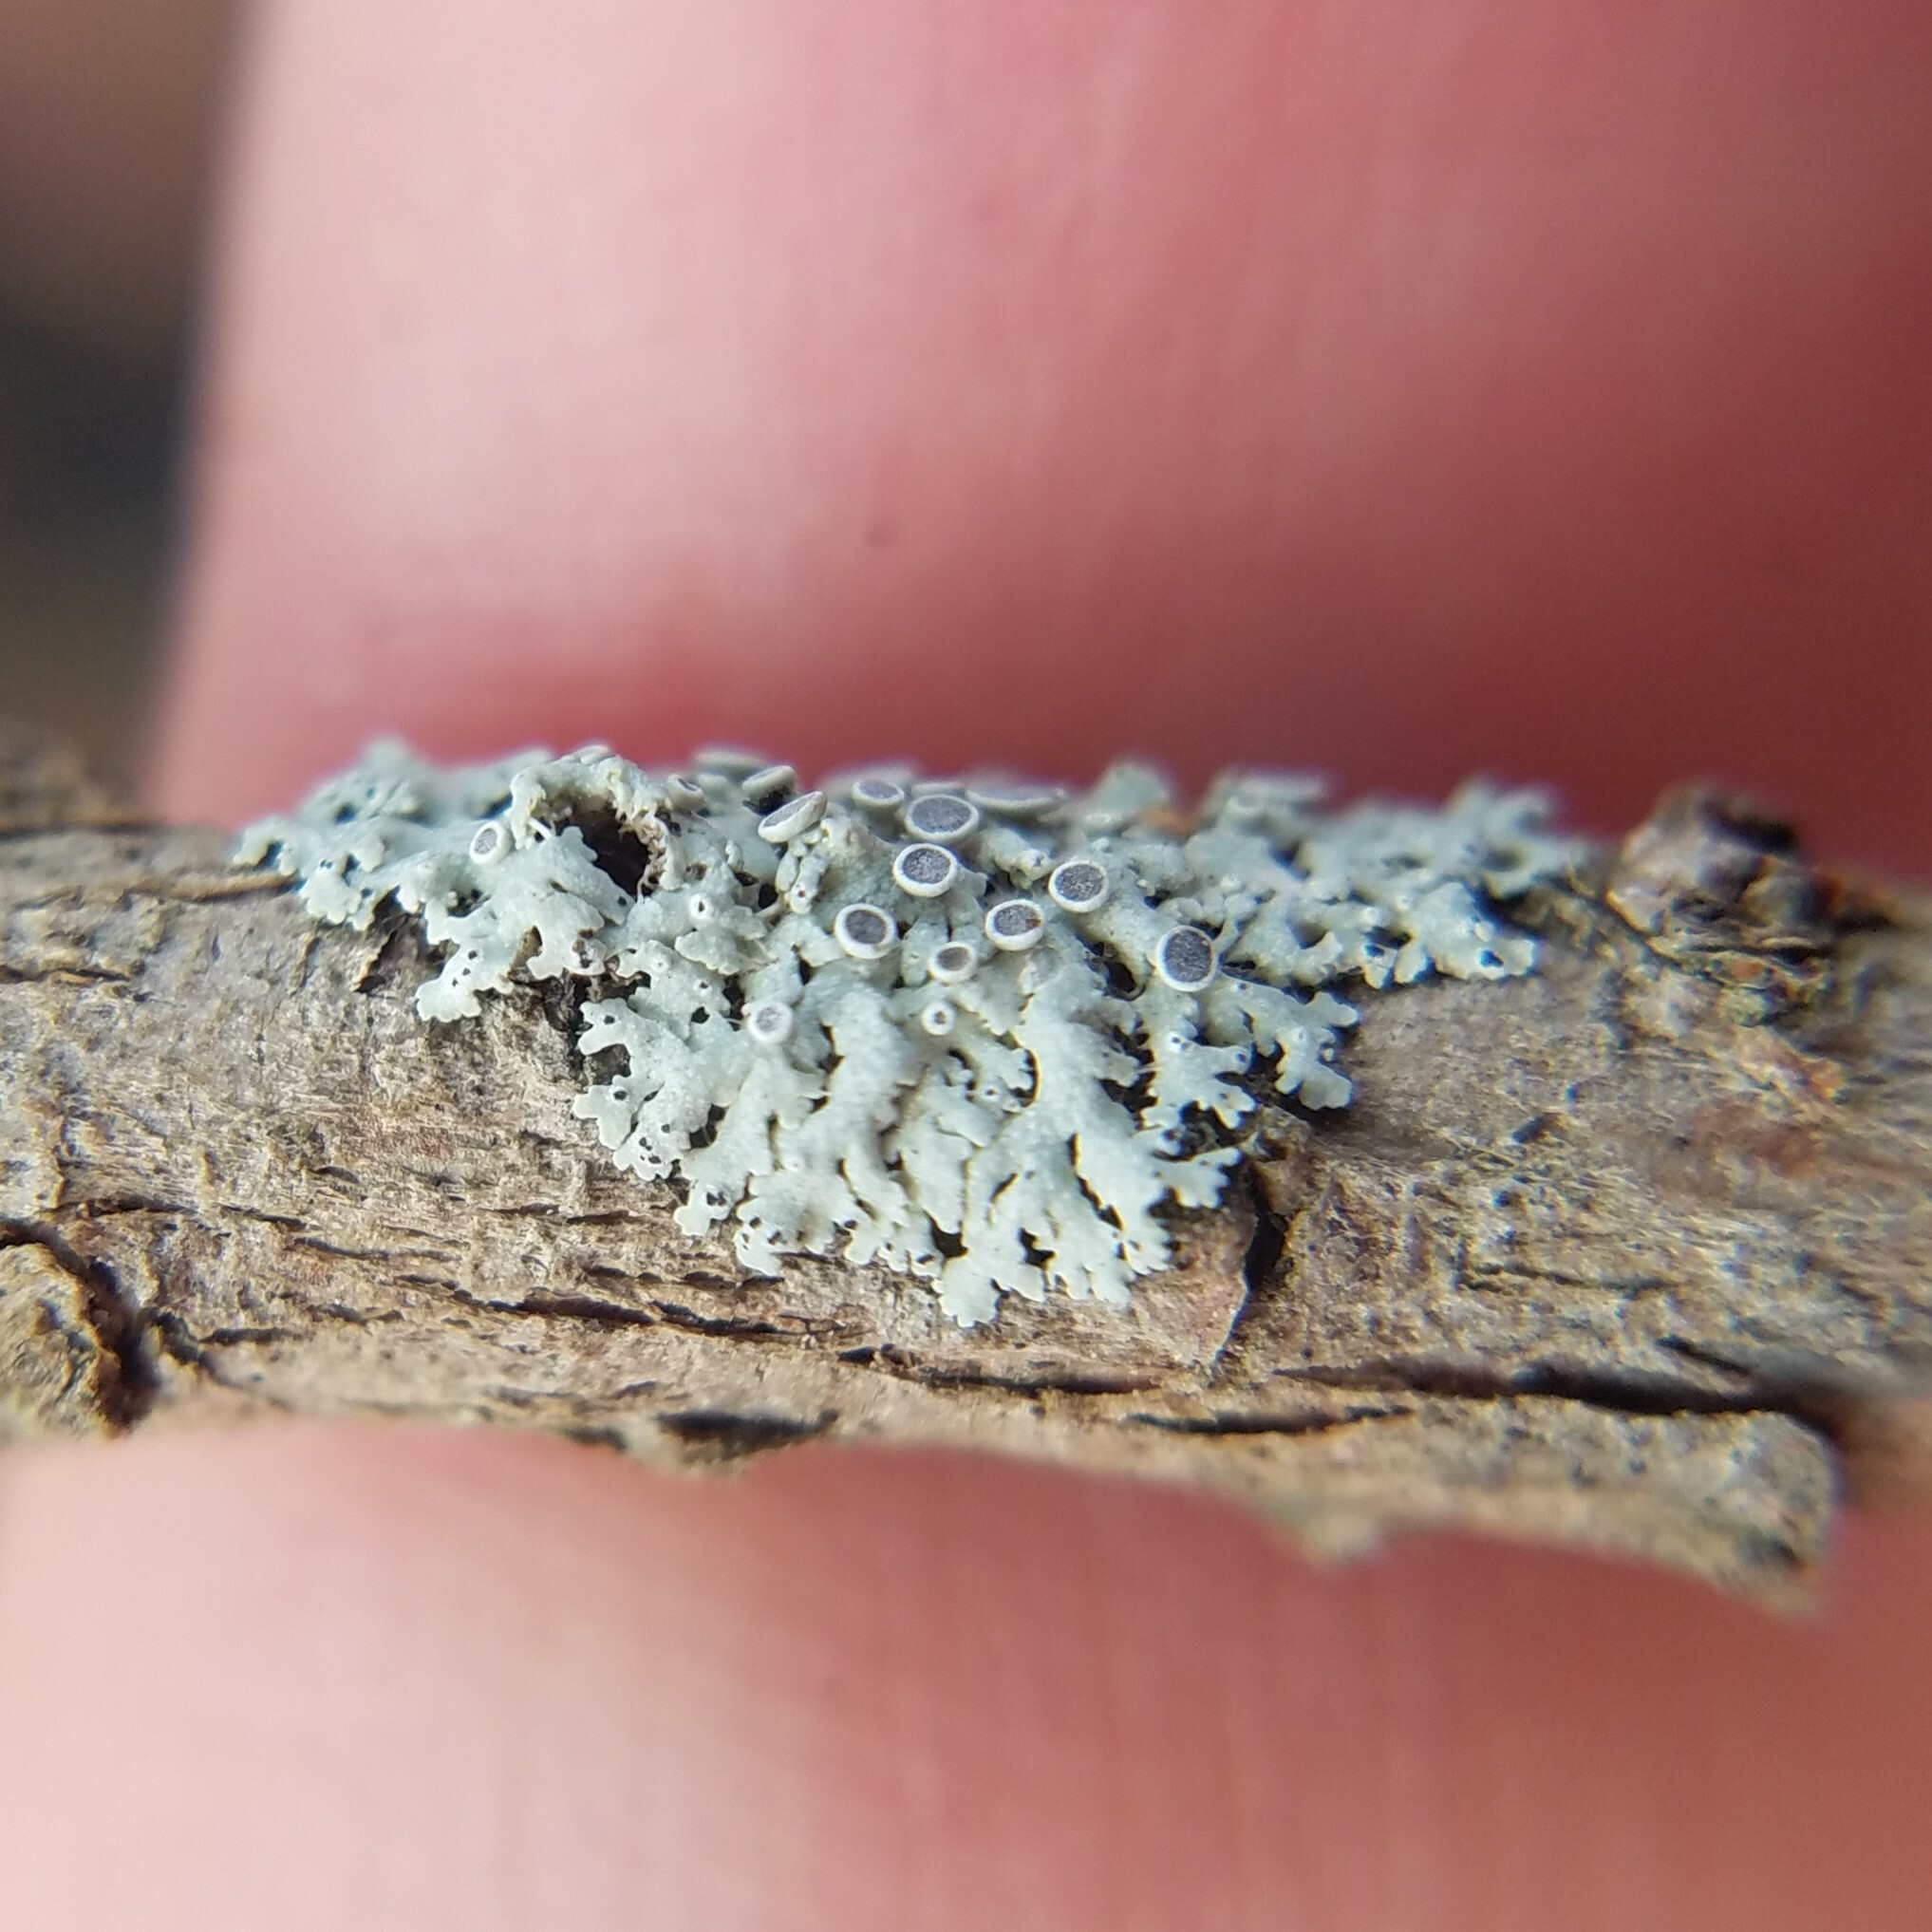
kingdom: Fungi
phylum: Ascomycota
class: Lecanoromycetes
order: Caliciales
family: Physciaceae
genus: Physcia
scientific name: Physcia pumilior
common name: Lesser gray legs
